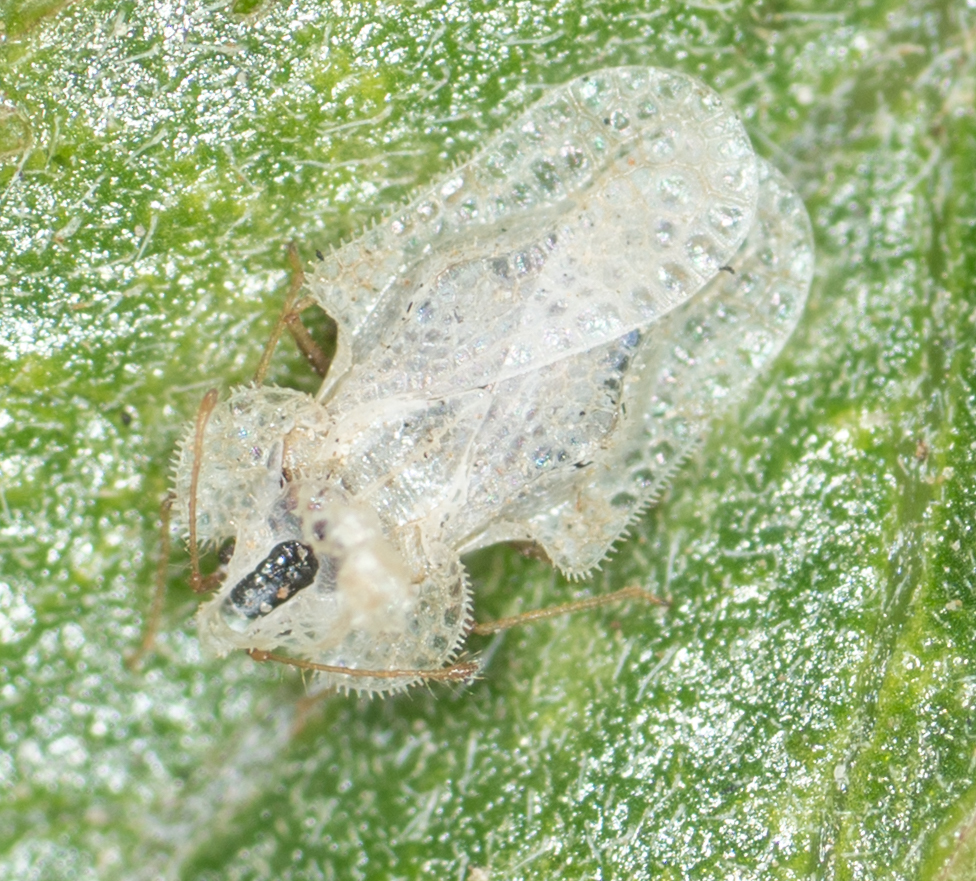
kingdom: Animalia
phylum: Arthropoda
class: Insecta
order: Hemiptera
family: Tingidae
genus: Corythucha
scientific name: Corythucha morrilli
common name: Morrill lace bug
